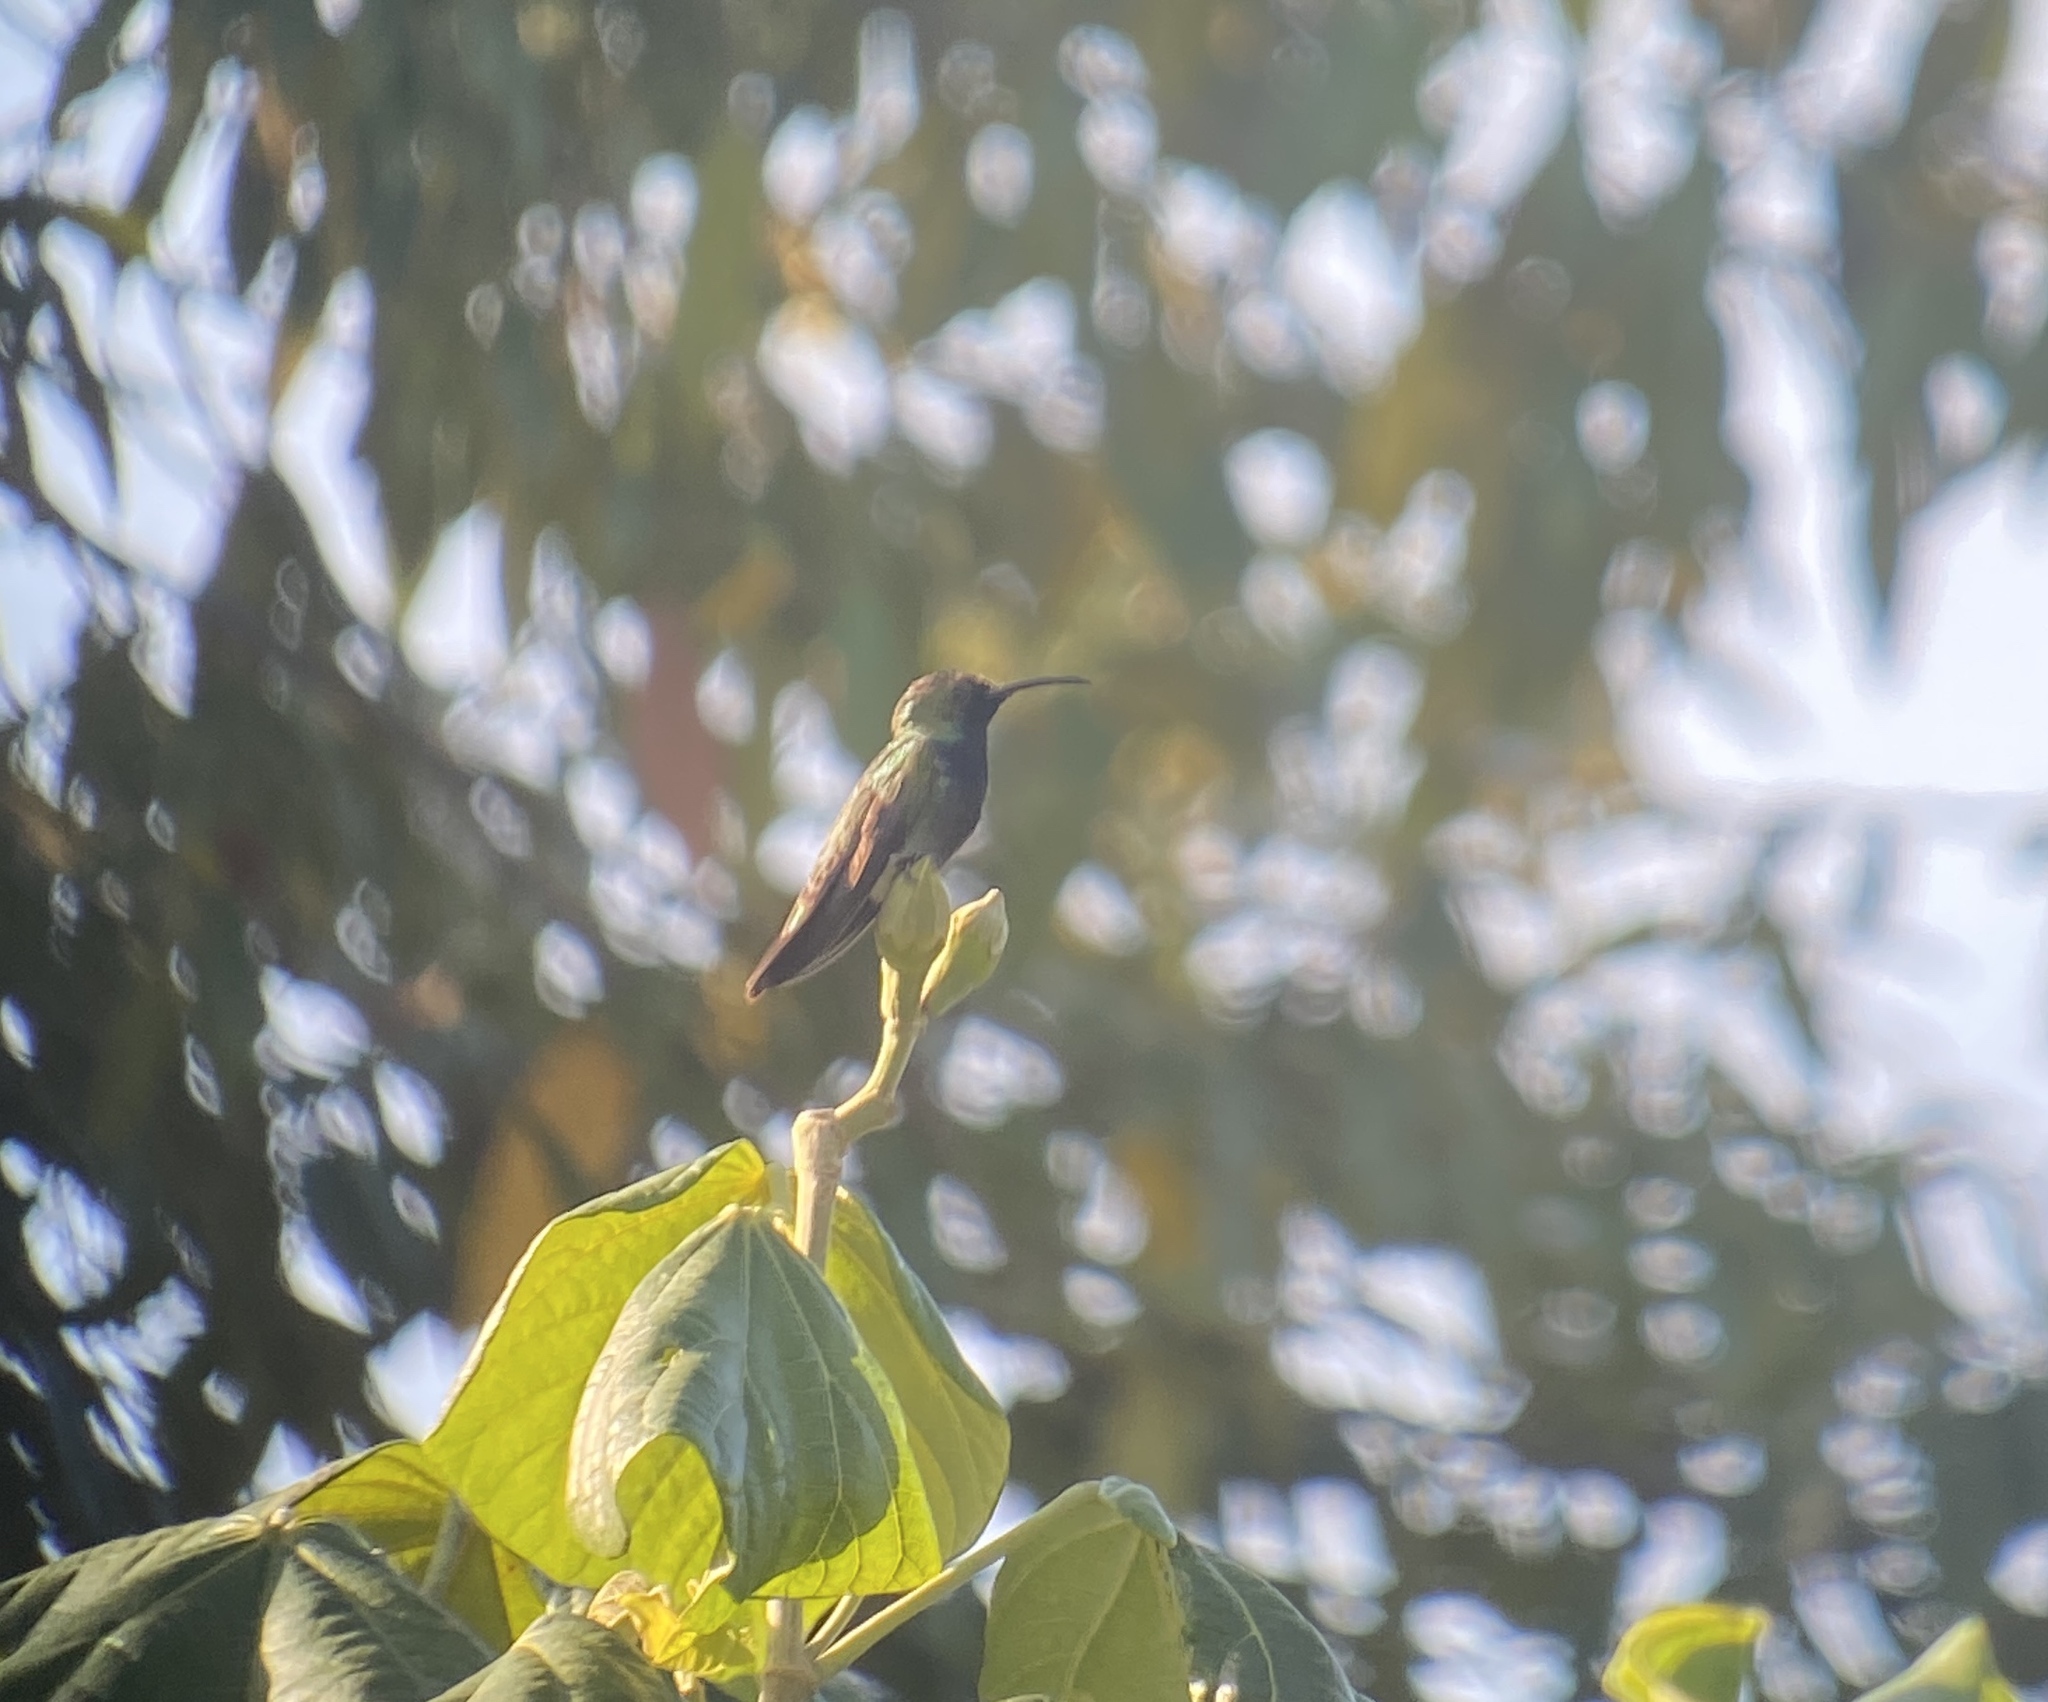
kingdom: Animalia
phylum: Chordata
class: Aves
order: Apodiformes
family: Trochilidae
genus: Anthracothorax
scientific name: Anthracothorax dominicus
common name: Antillean mango
